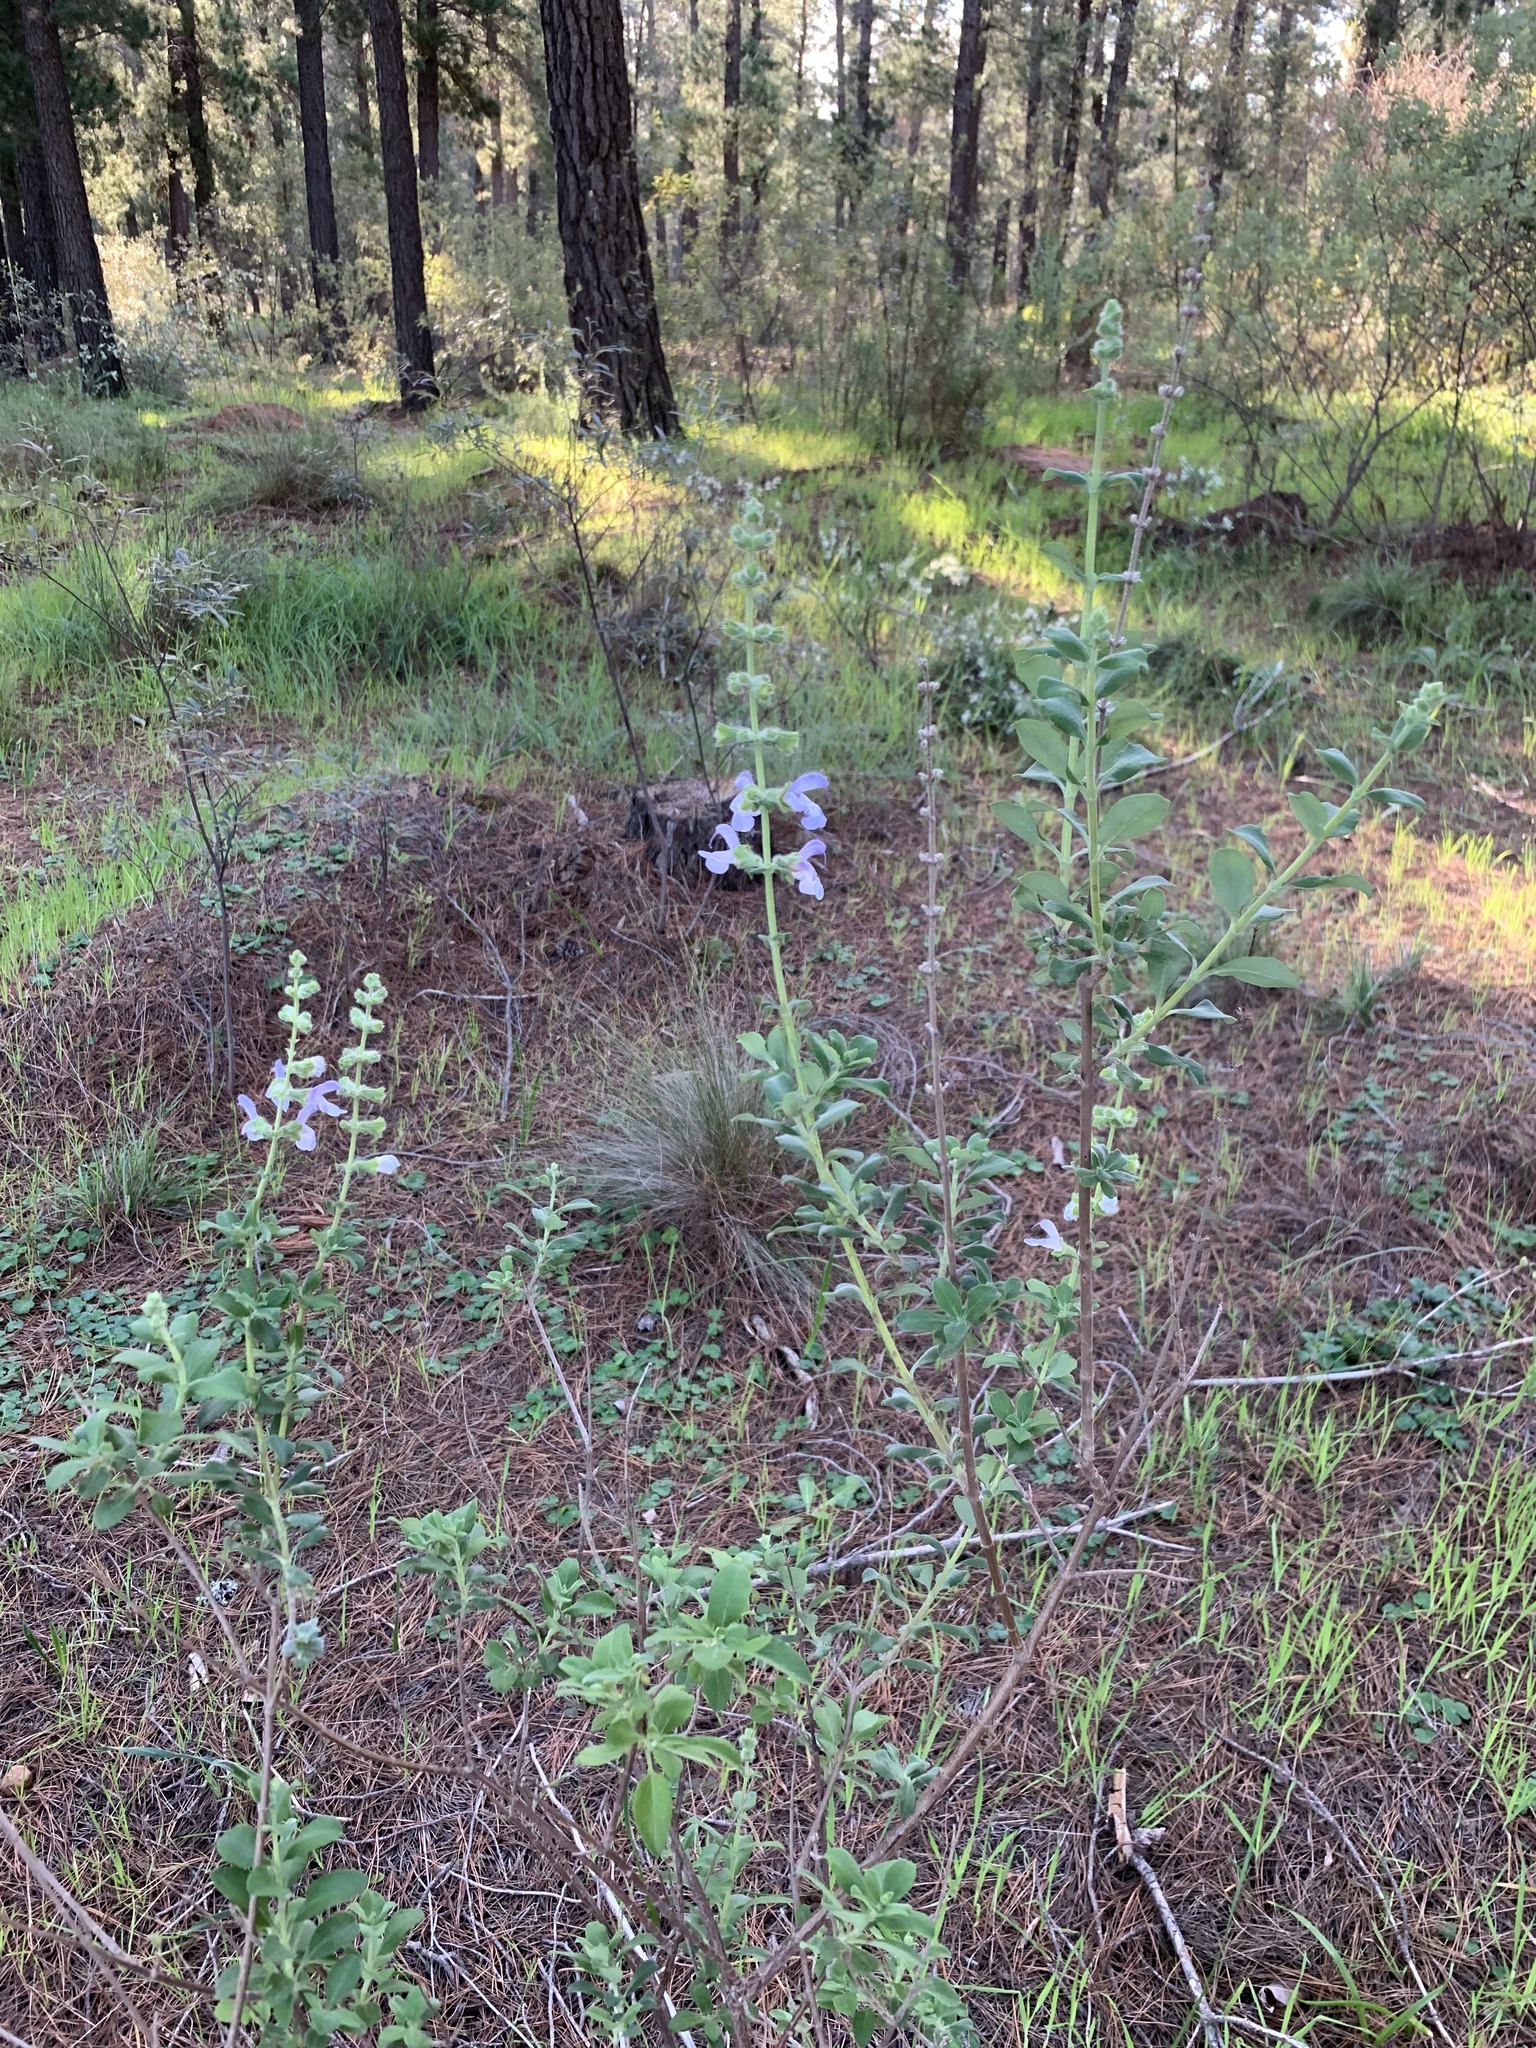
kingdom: Plantae
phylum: Tracheophyta
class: Magnoliopsida
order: Lamiales
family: Lamiaceae
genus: Salvia
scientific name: Salvia africana
